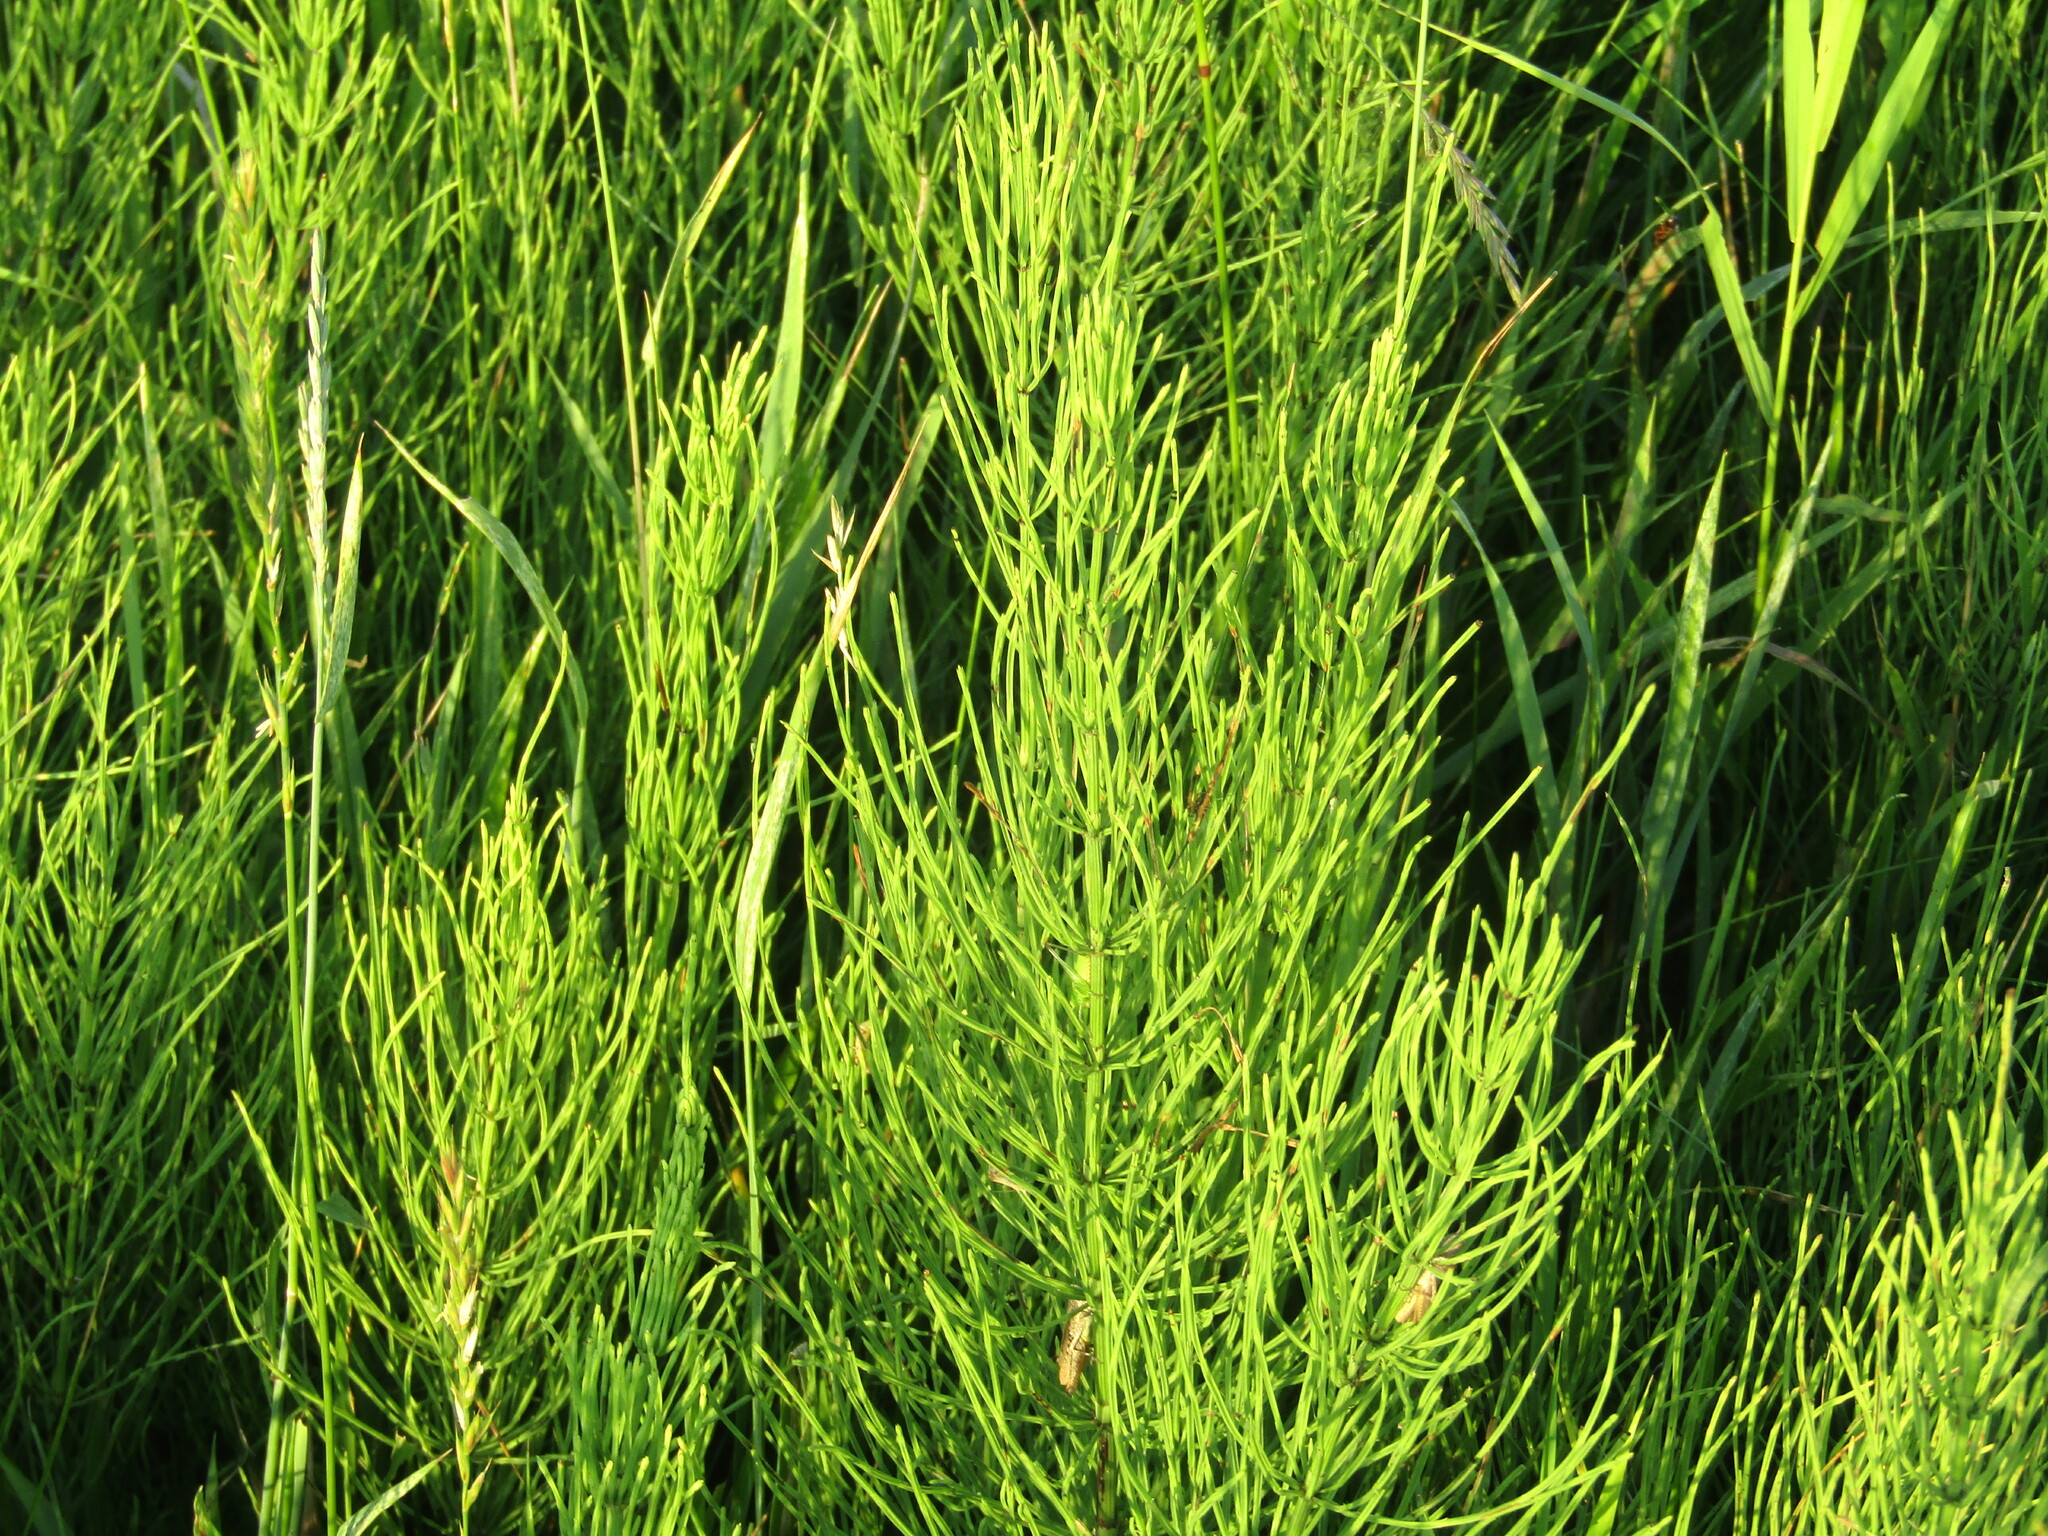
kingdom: Plantae
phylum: Tracheophyta
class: Polypodiopsida
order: Equisetales
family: Equisetaceae
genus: Equisetum
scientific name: Equisetum arvense
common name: Field horsetail
